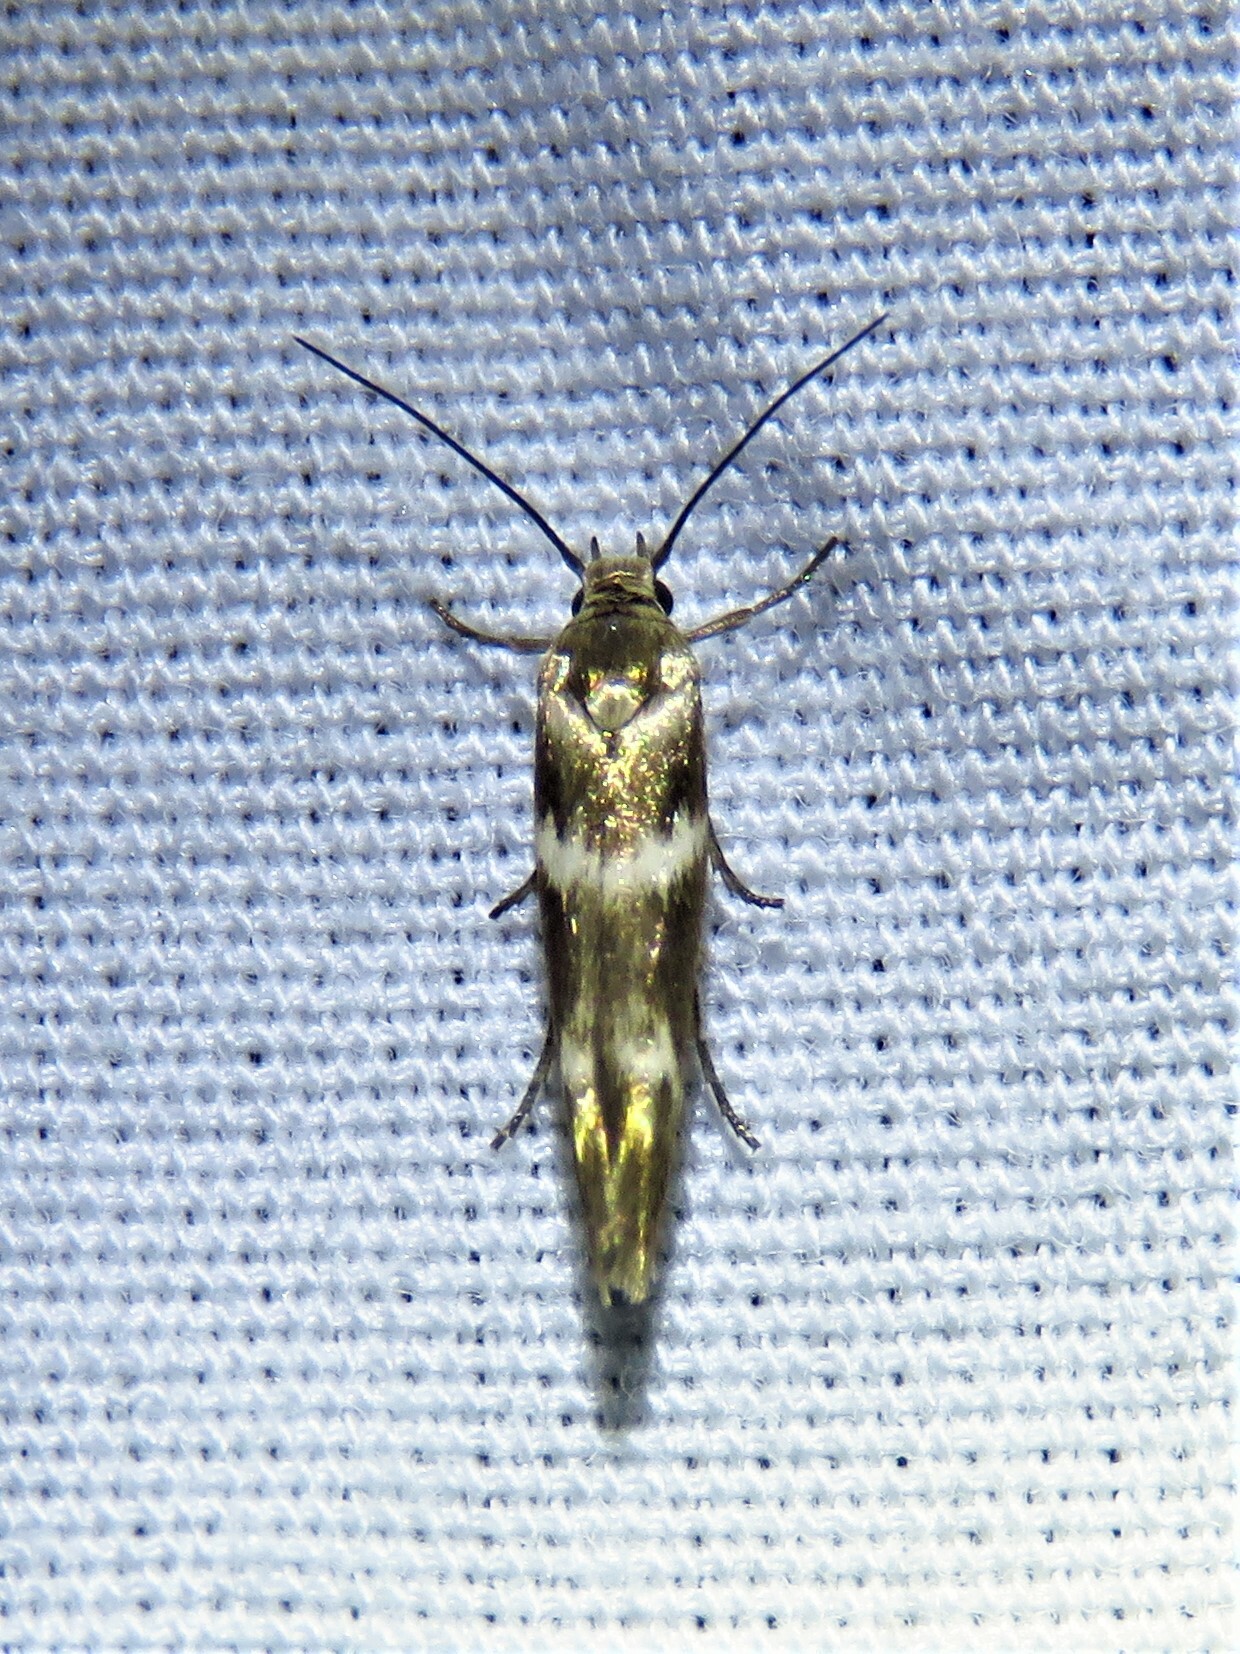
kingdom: Animalia
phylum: Arthropoda
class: Insecta
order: Lepidoptera
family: Scythrididae
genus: Scythris
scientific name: Scythris trivinctella
